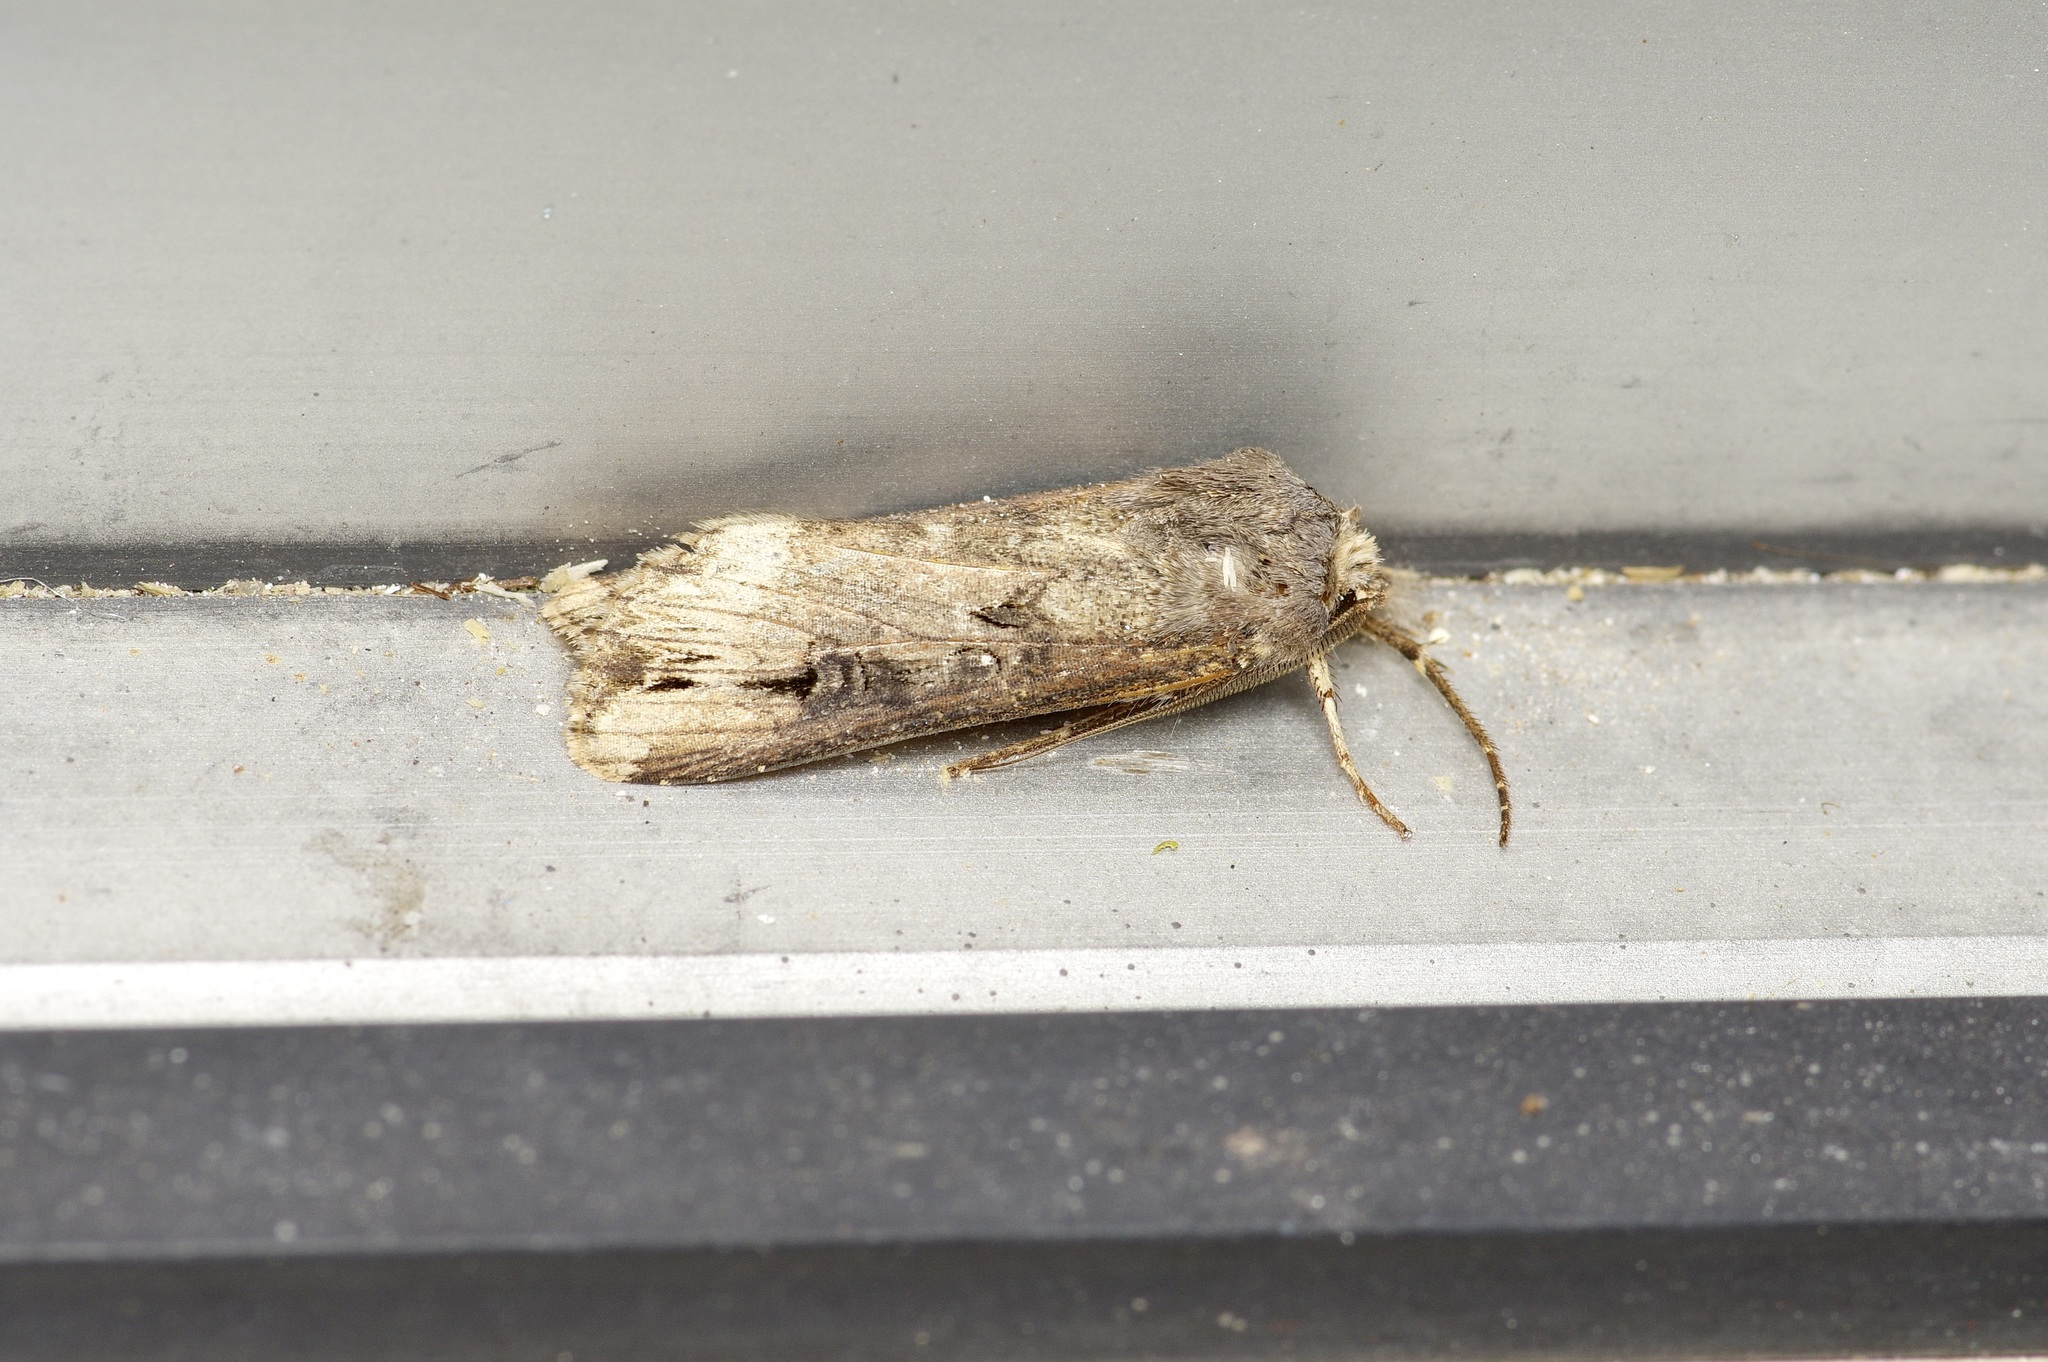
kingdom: Animalia
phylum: Arthropoda
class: Insecta
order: Lepidoptera
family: Noctuidae
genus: Agrotis
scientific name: Agrotis ipsilon
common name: Dark sword-grass
